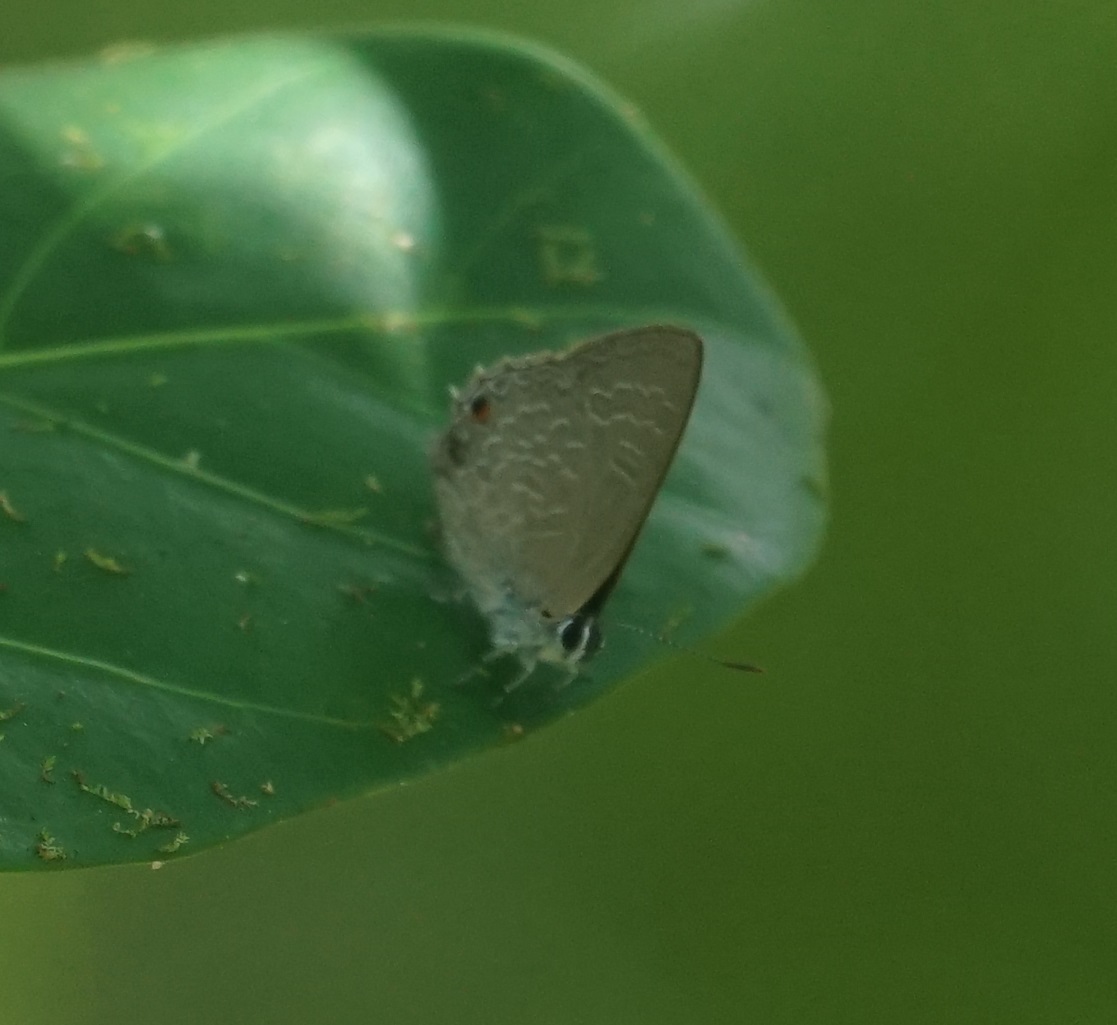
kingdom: Animalia
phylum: Arthropoda
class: Insecta
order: Lepidoptera
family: Lycaenidae
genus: Anthene
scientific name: Anthene lycaenoides
